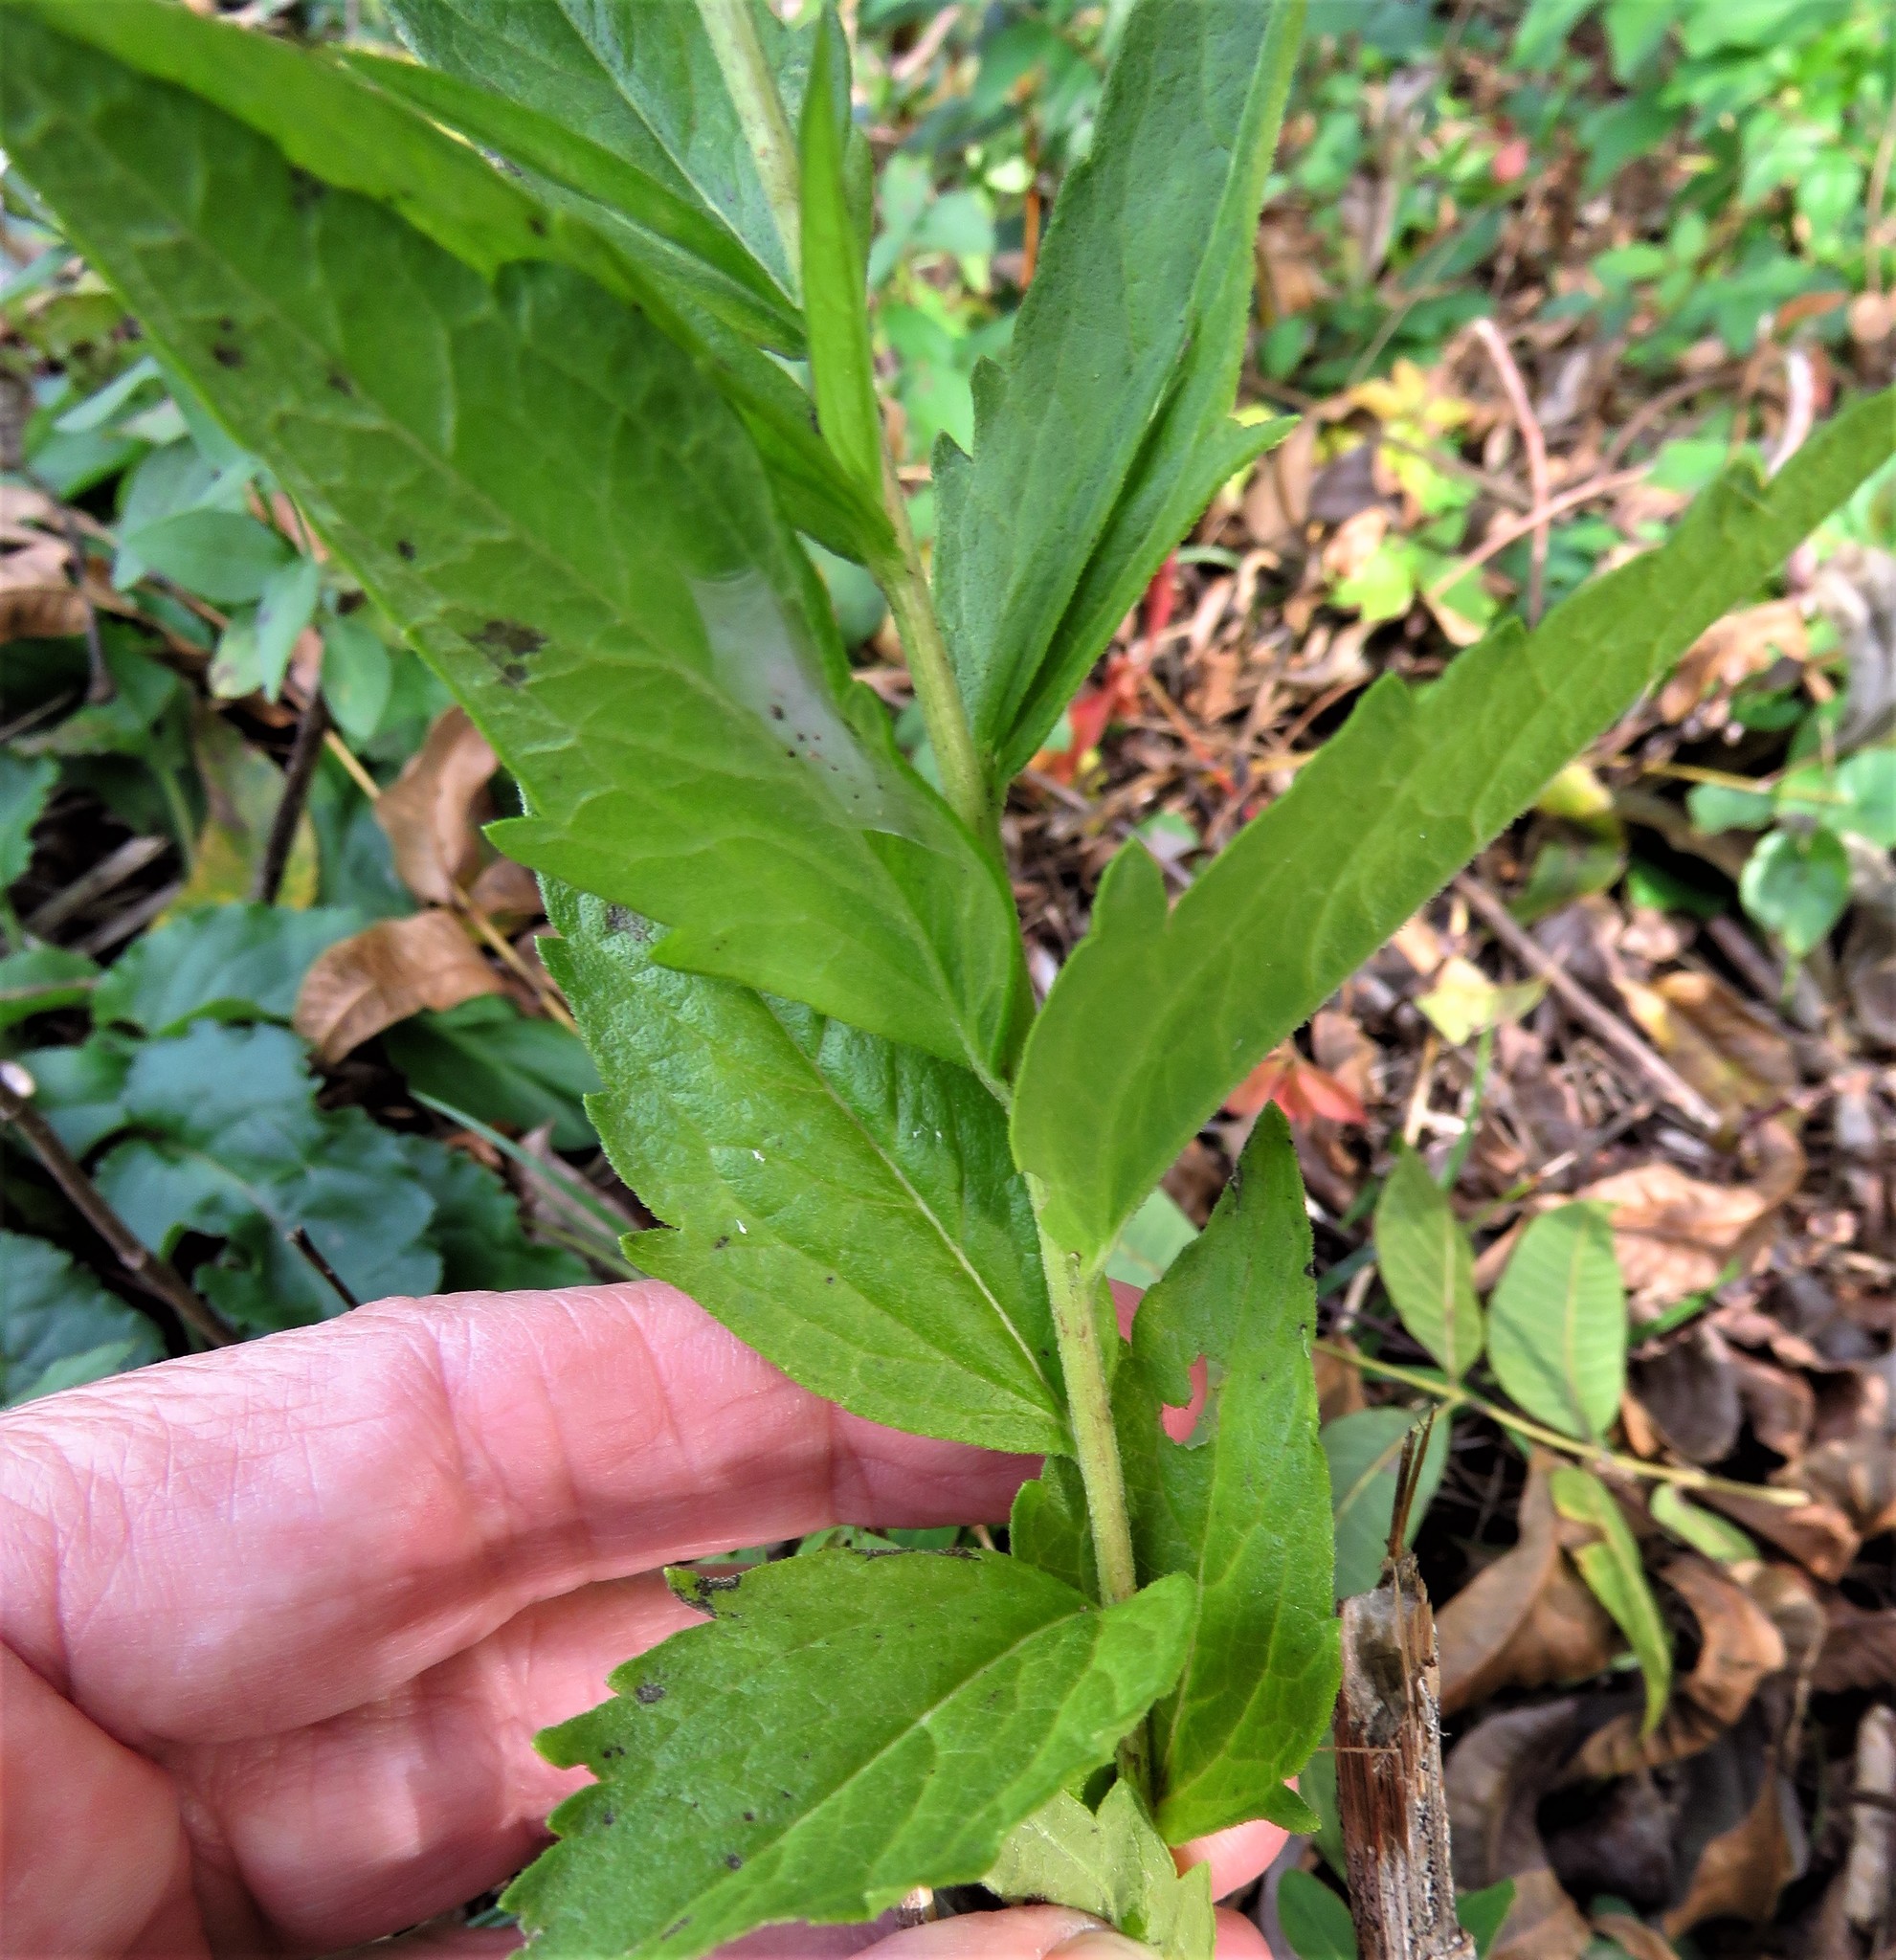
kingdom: Plantae
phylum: Tracheophyta
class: Magnoliopsida
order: Asterales
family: Asteraceae
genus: Brickellia
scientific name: Brickellia eupatorioides
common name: False boneset
